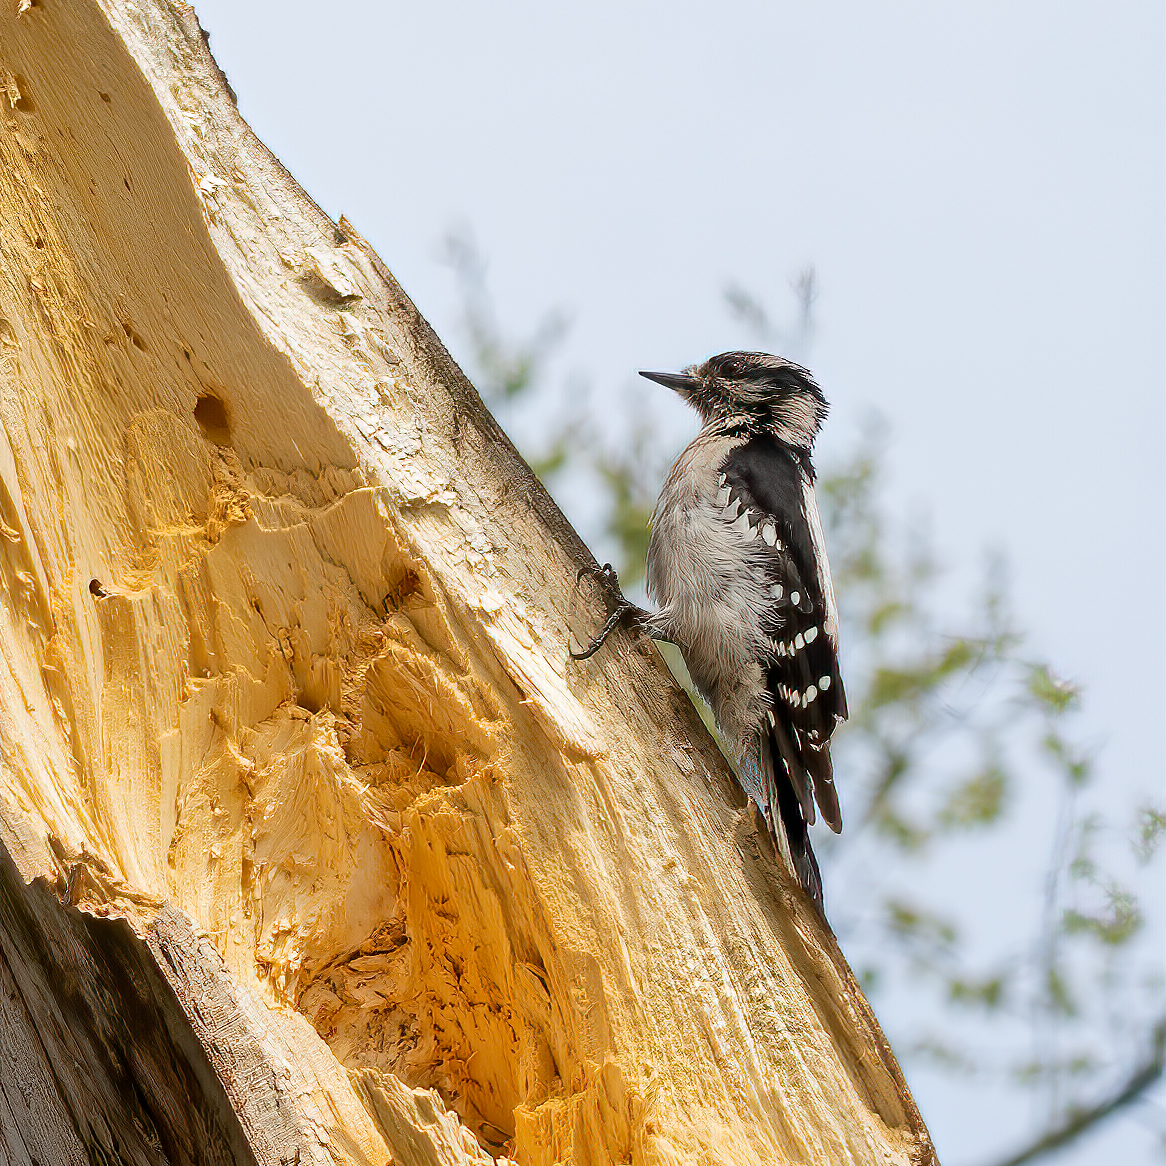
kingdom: Animalia
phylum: Chordata
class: Aves
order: Piciformes
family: Picidae
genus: Dryobates
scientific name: Dryobates pubescens
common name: Downy woodpecker
